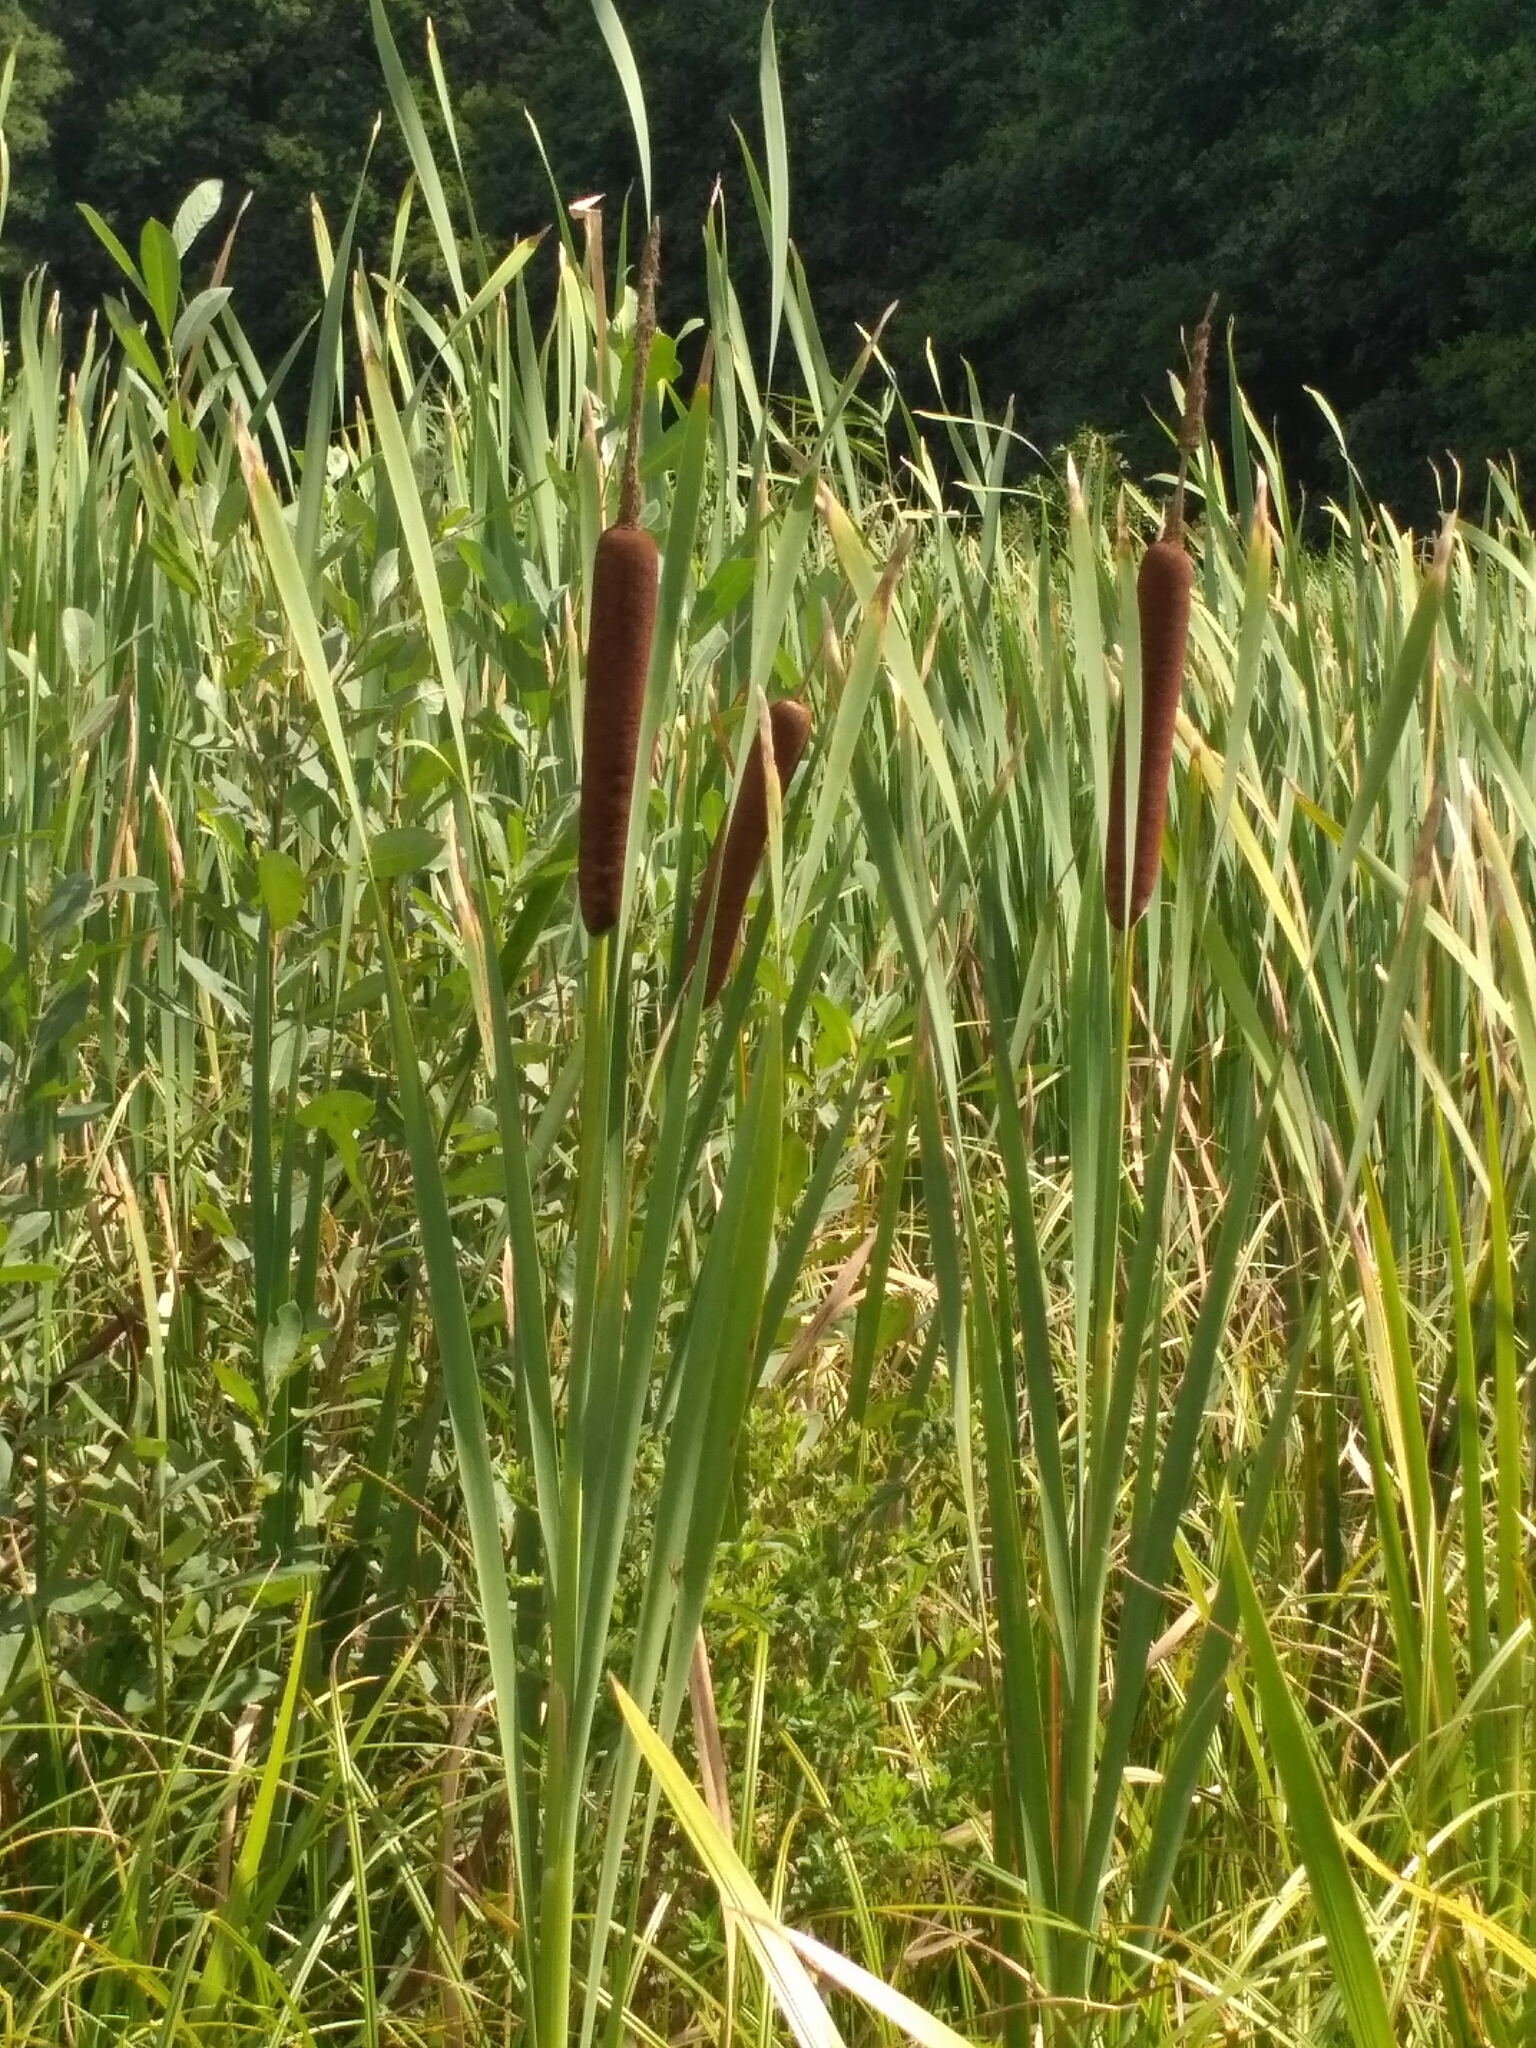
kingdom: Plantae
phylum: Tracheophyta
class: Liliopsida
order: Poales
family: Typhaceae
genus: Typha
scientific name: Typha latifolia
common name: Broadleaf cattail
